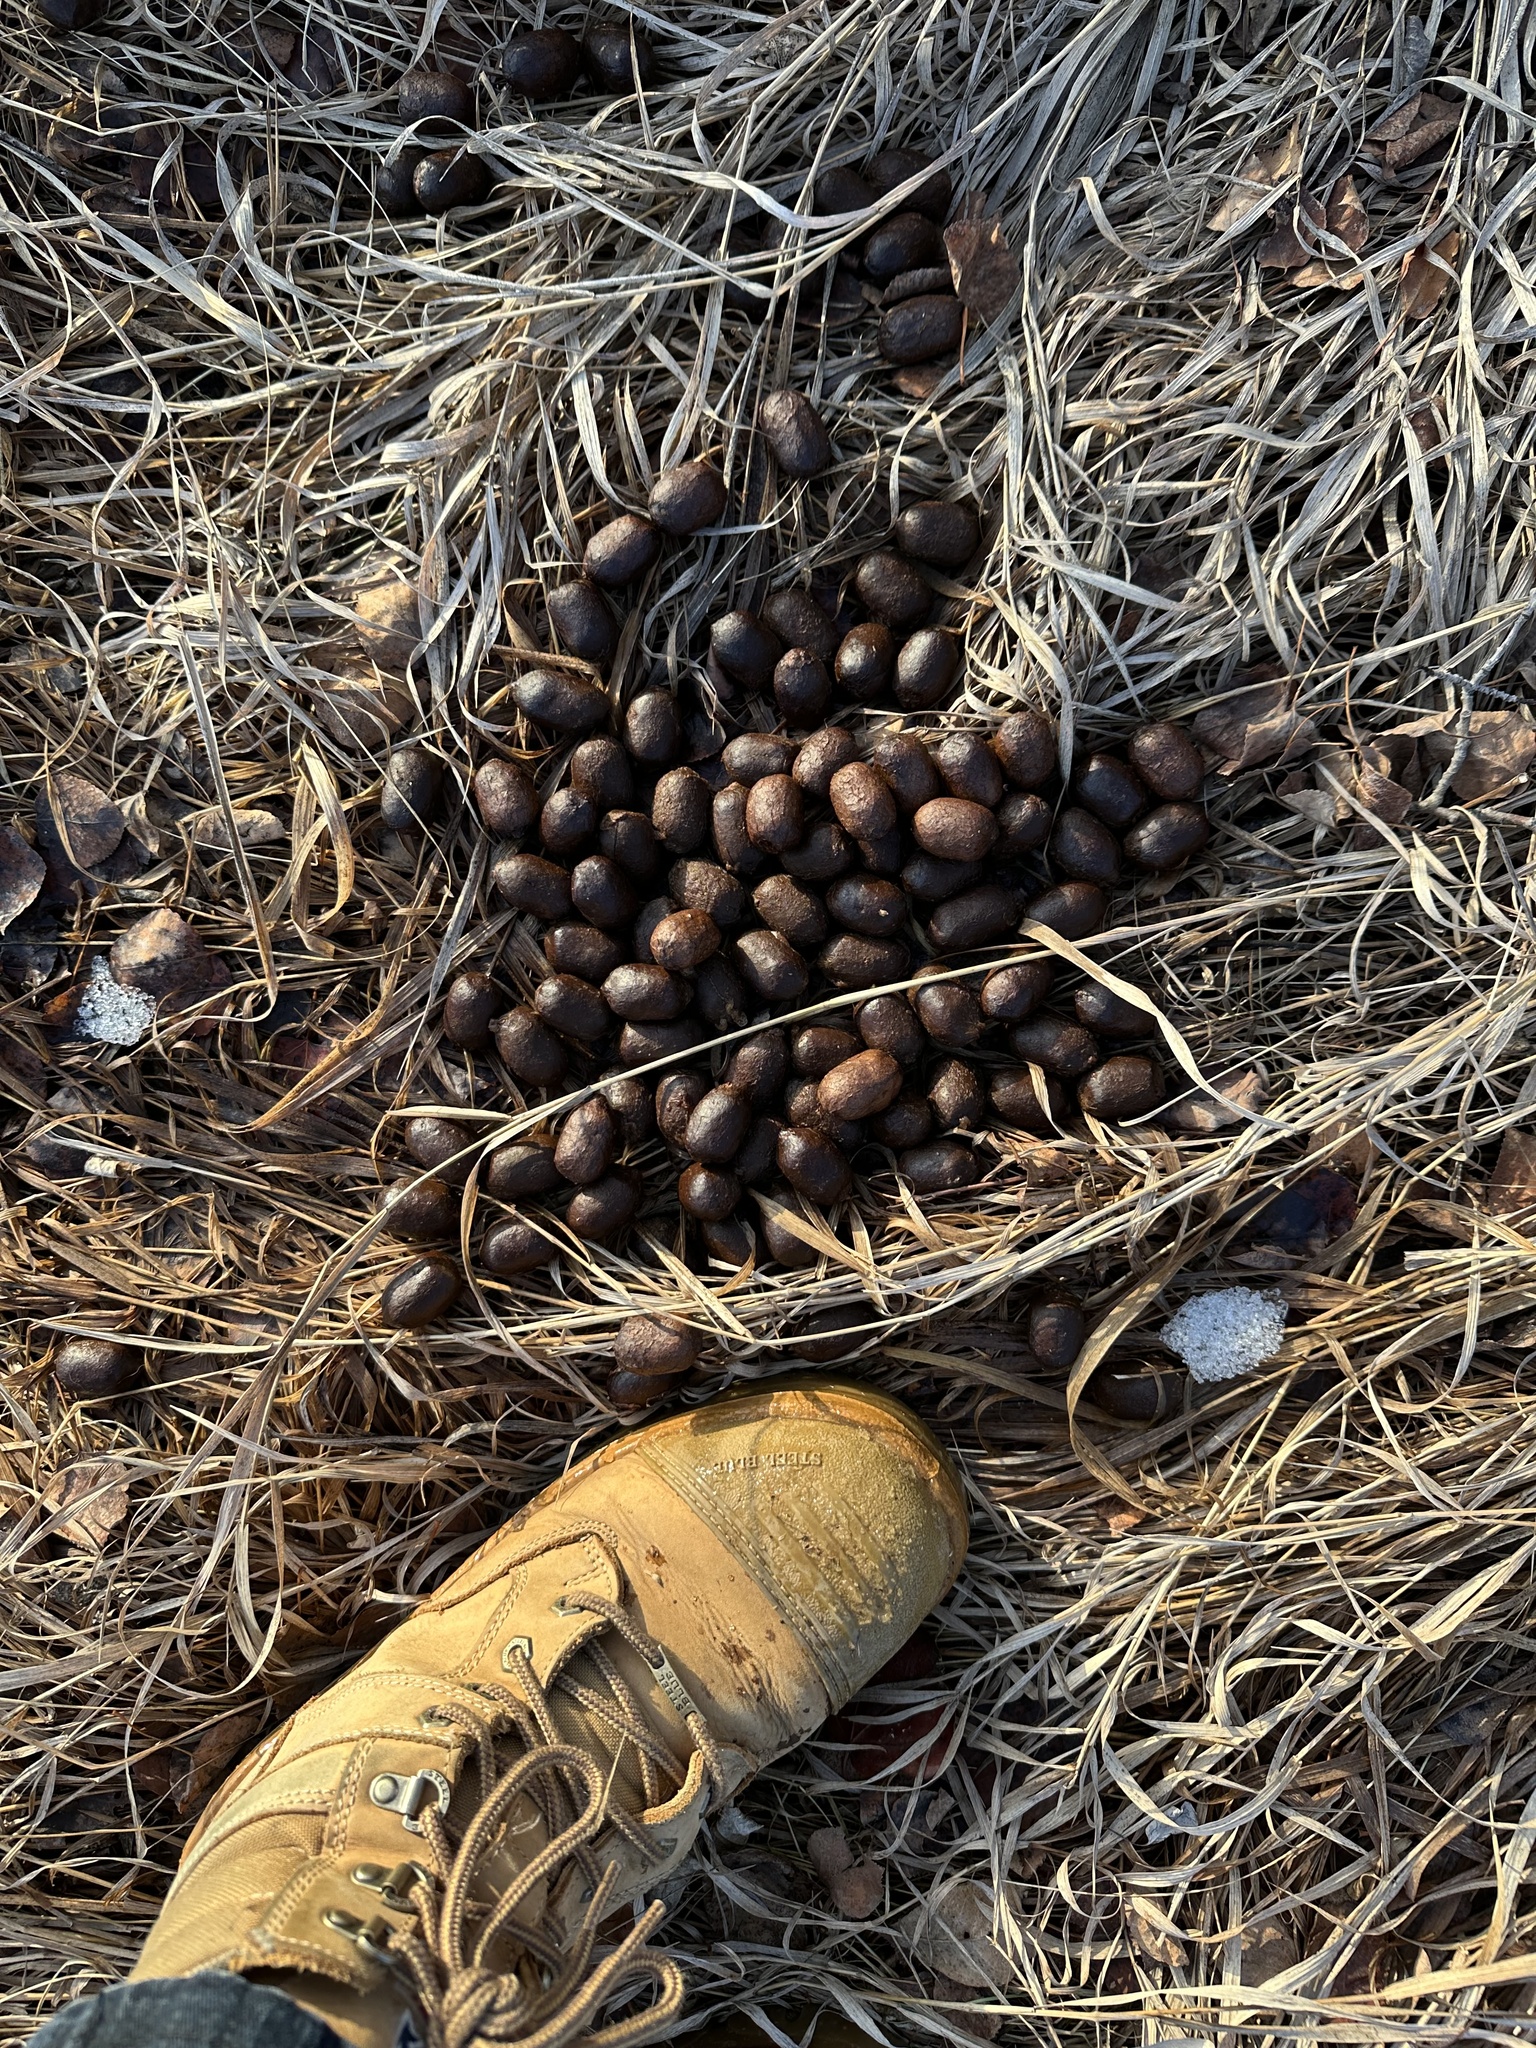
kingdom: Animalia
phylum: Chordata
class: Mammalia
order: Artiodactyla
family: Cervidae
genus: Alces
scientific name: Alces alces
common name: Moose
